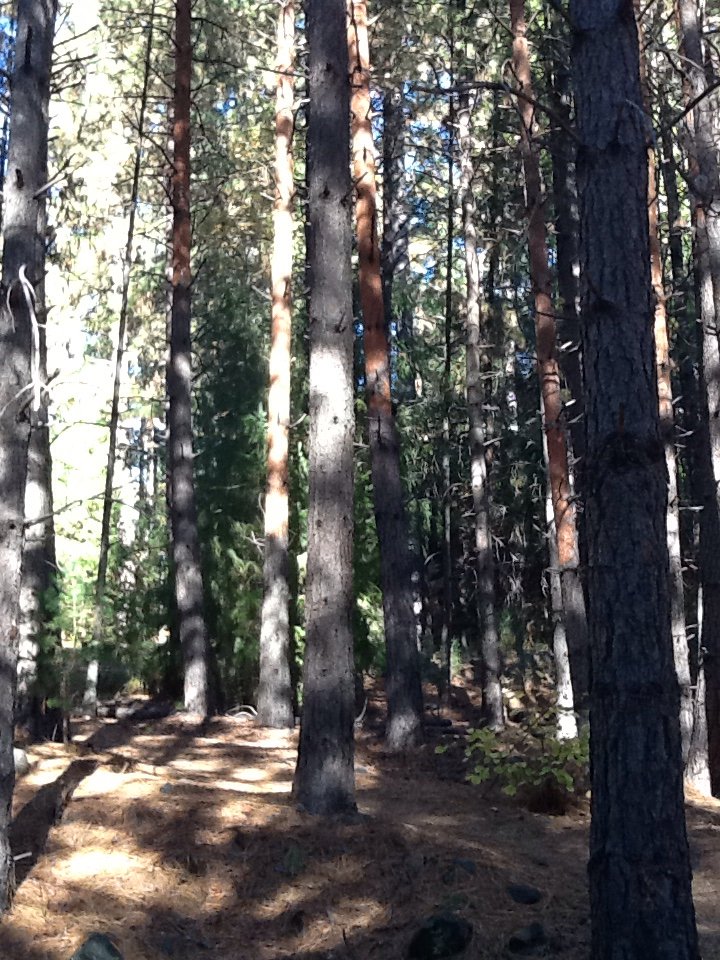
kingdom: Animalia
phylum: Chordata
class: Aves
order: Piciformes
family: Picidae
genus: Dryocopus
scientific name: Dryocopus pileatus
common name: Pileated woodpecker
